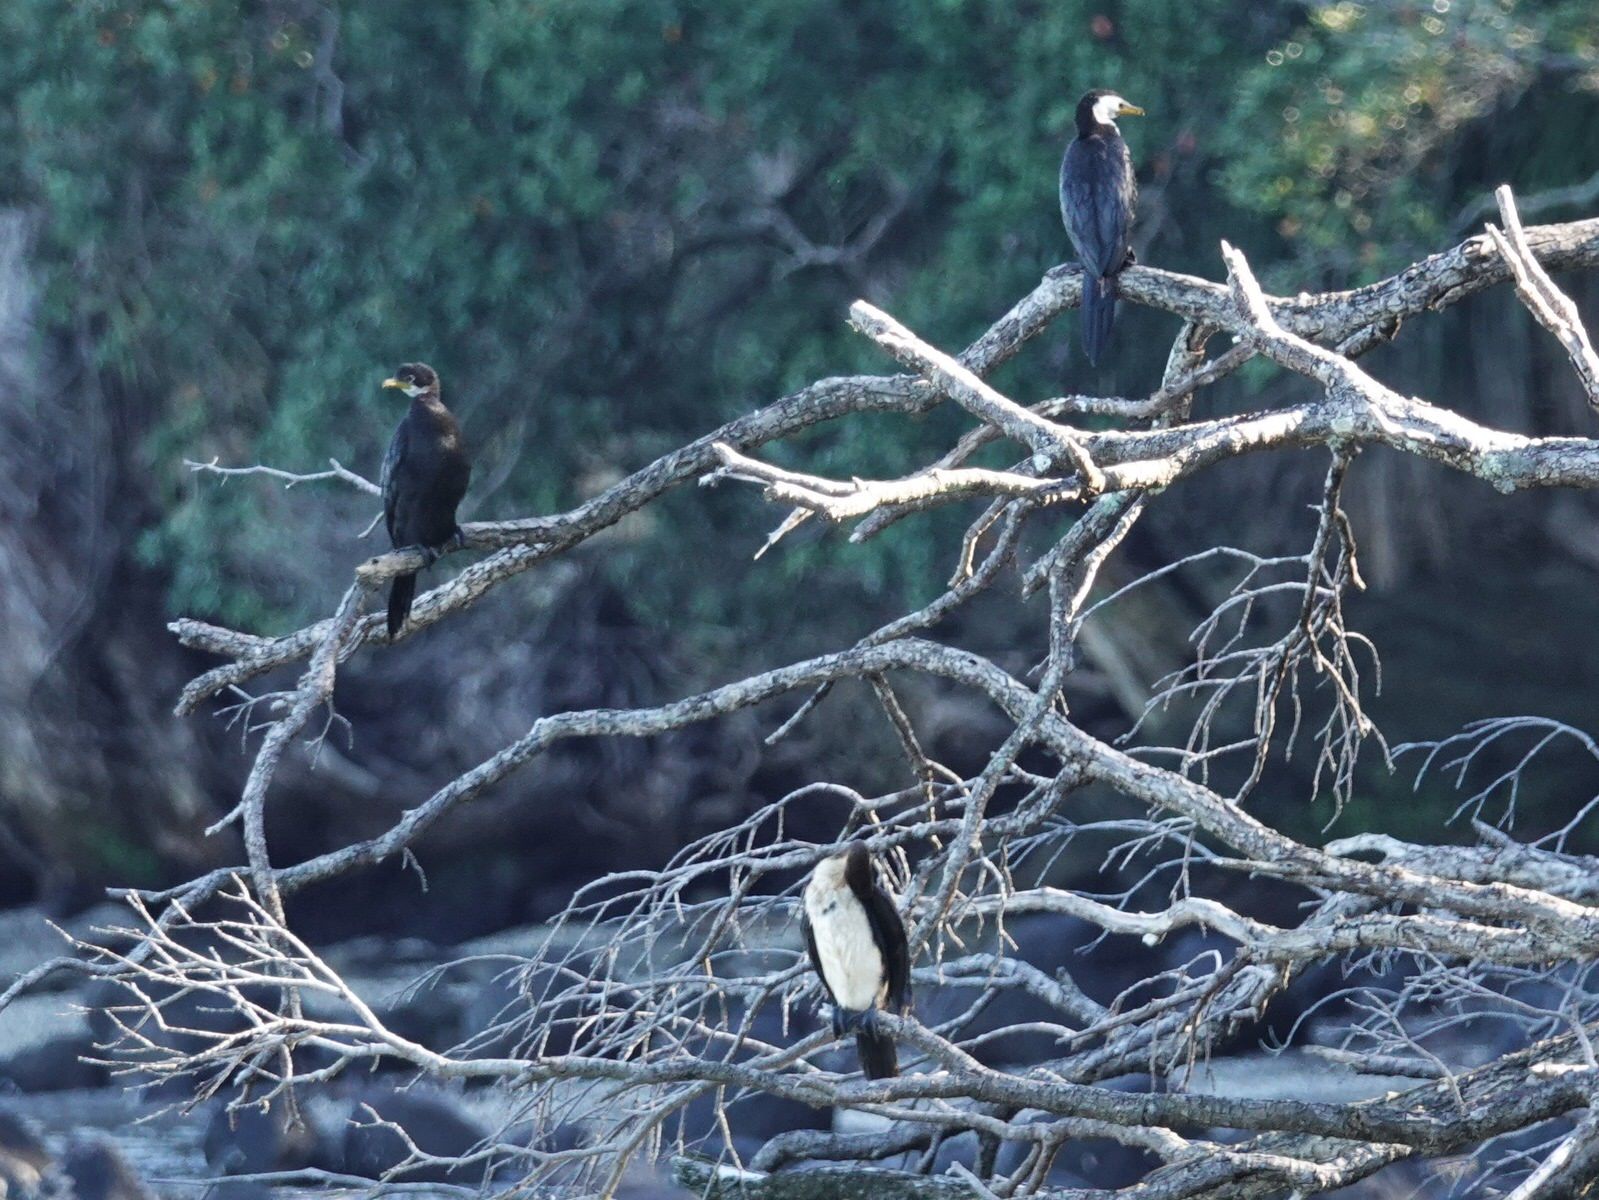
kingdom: Animalia
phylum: Chordata
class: Aves
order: Suliformes
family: Phalacrocoracidae
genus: Microcarbo
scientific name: Microcarbo melanoleucos
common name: Little pied cormorant
